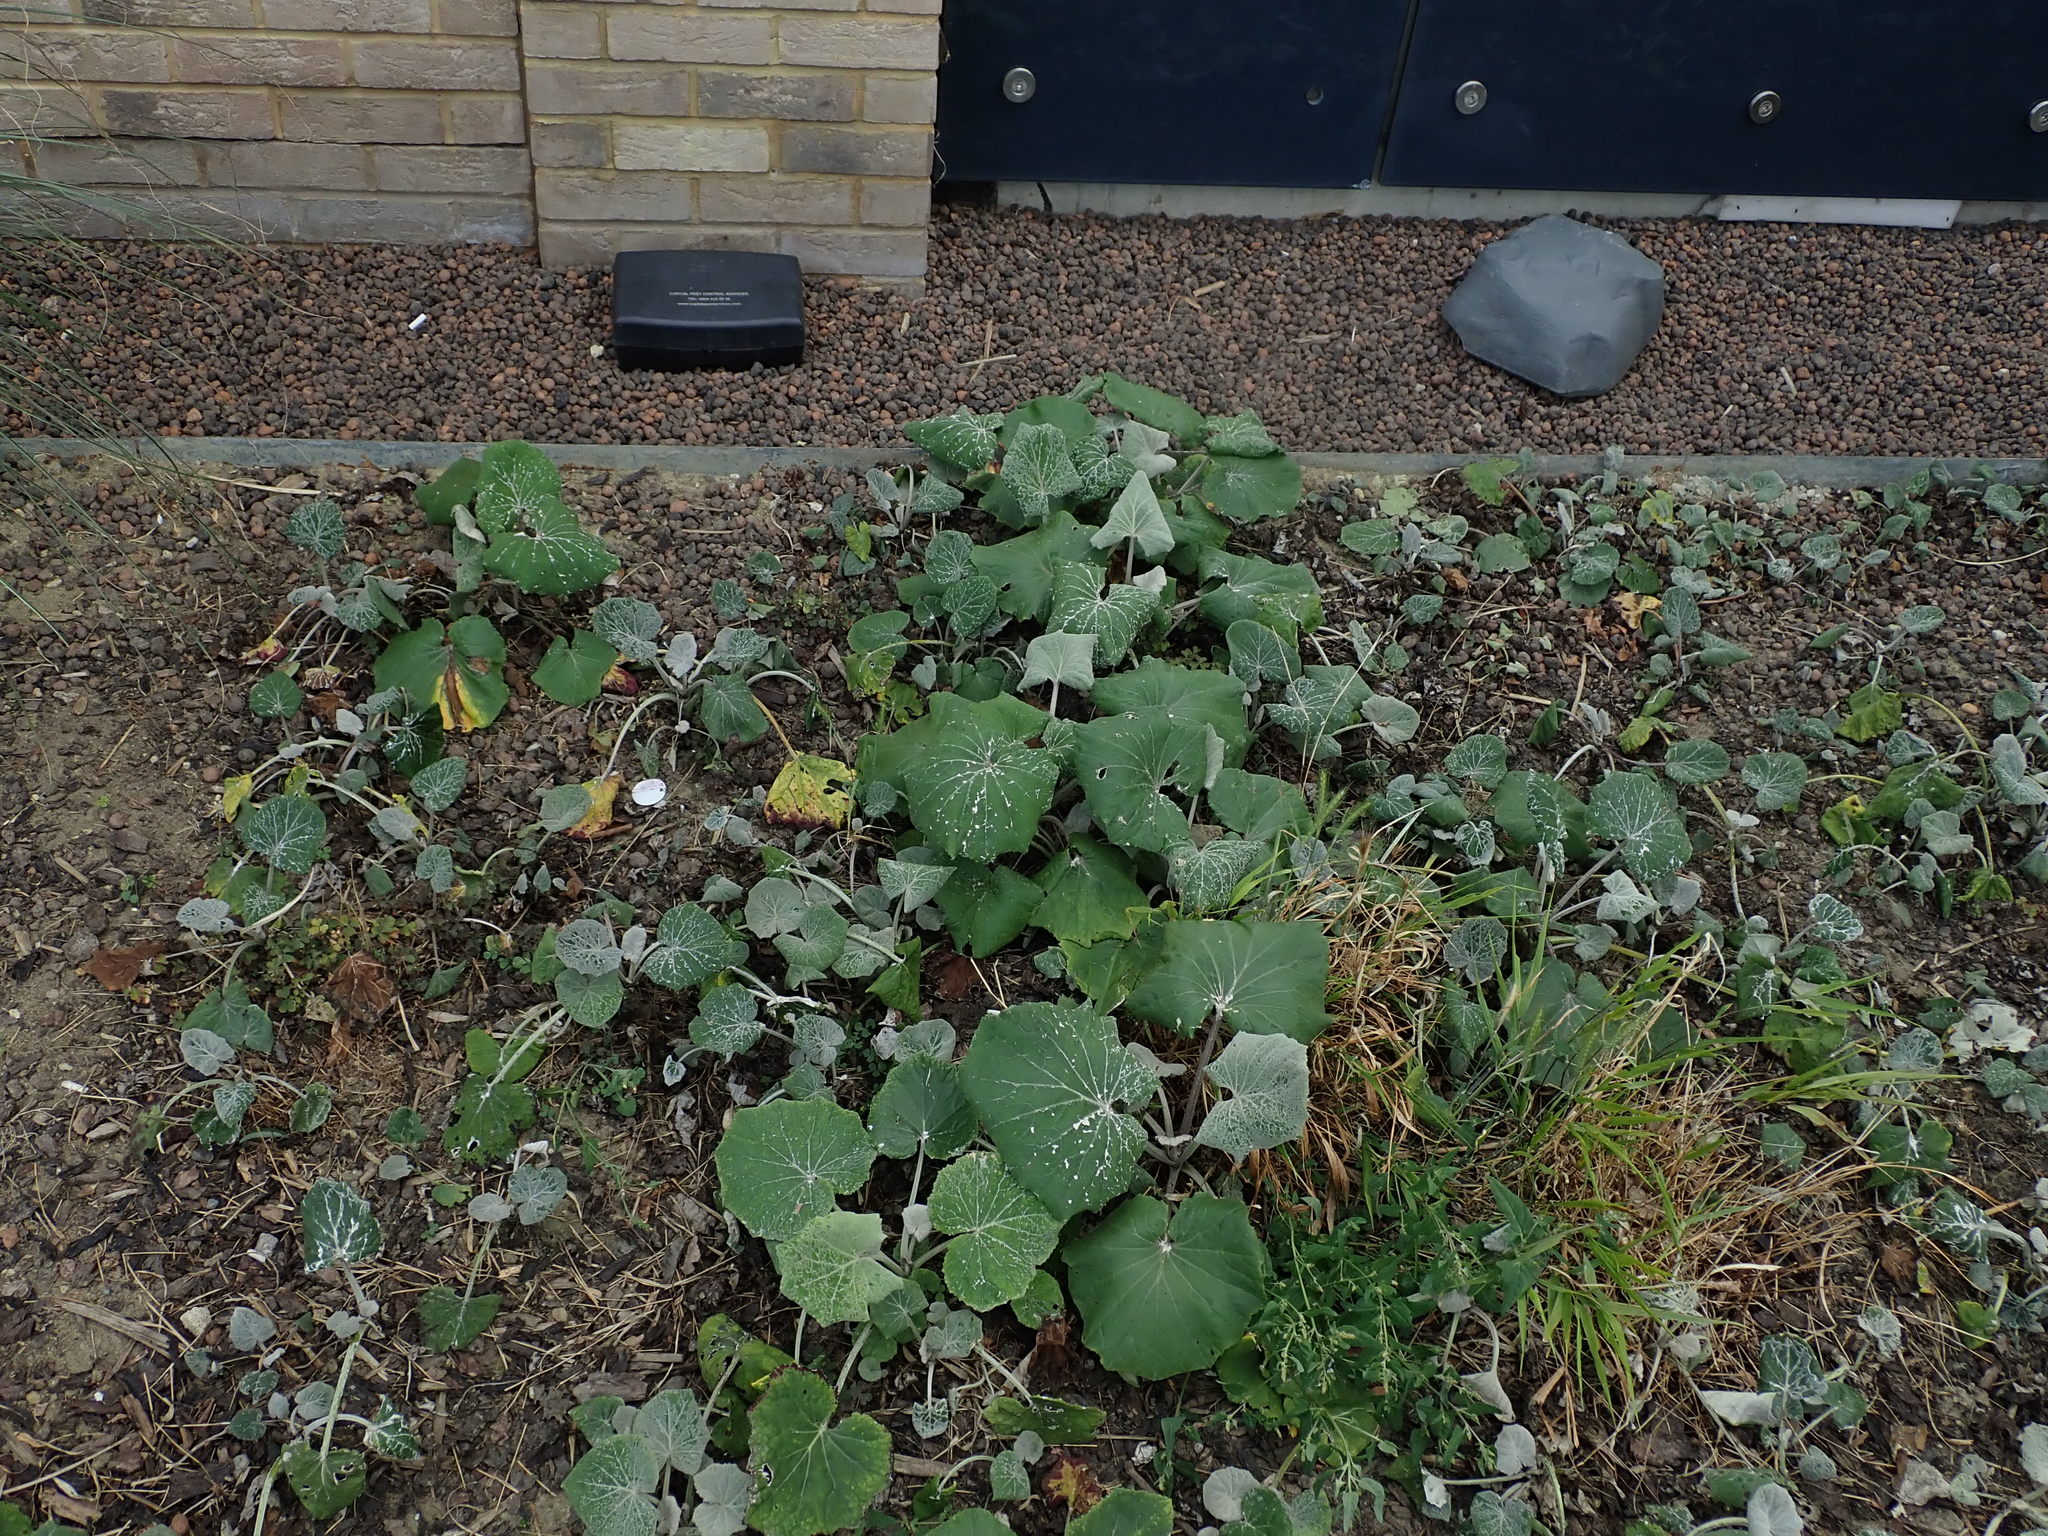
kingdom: Plantae
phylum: Tracheophyta
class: Magnoliopsida
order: Asterales
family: Asteraceae
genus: Tussilago
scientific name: Tussilago farfara
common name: Coltsfoot
